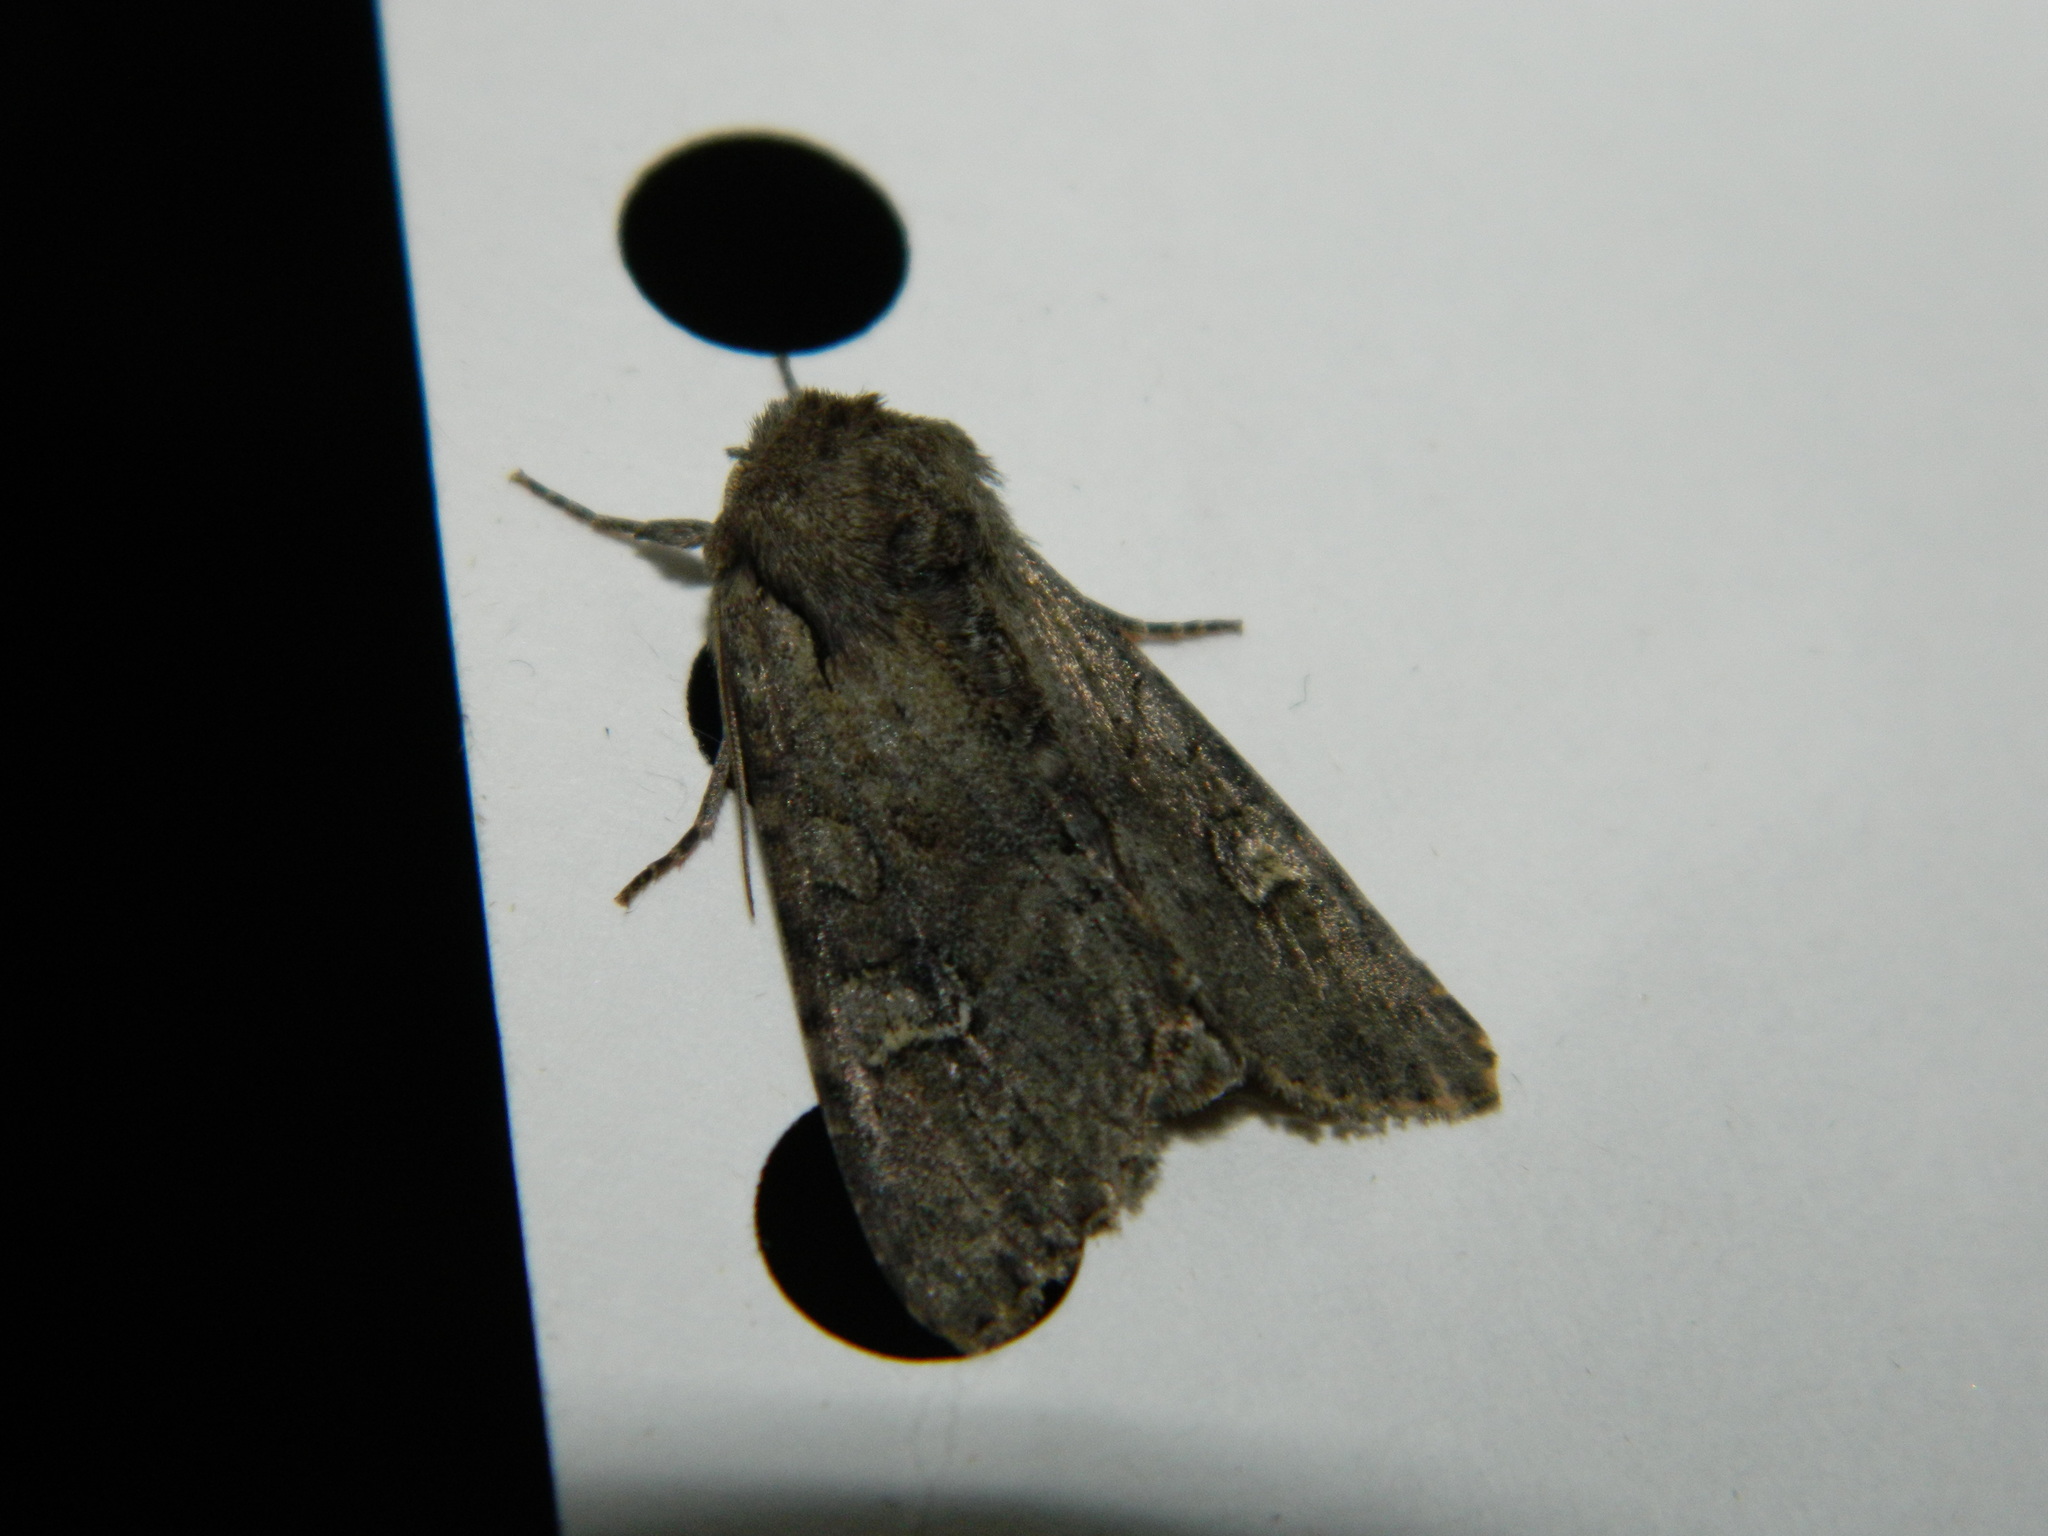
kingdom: Animalia
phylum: Arthropoda
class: Insecta
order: Lepidoptera
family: Noctuidae
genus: Apamea
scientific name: Apamea sordens
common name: Rustic shoulder-knot
